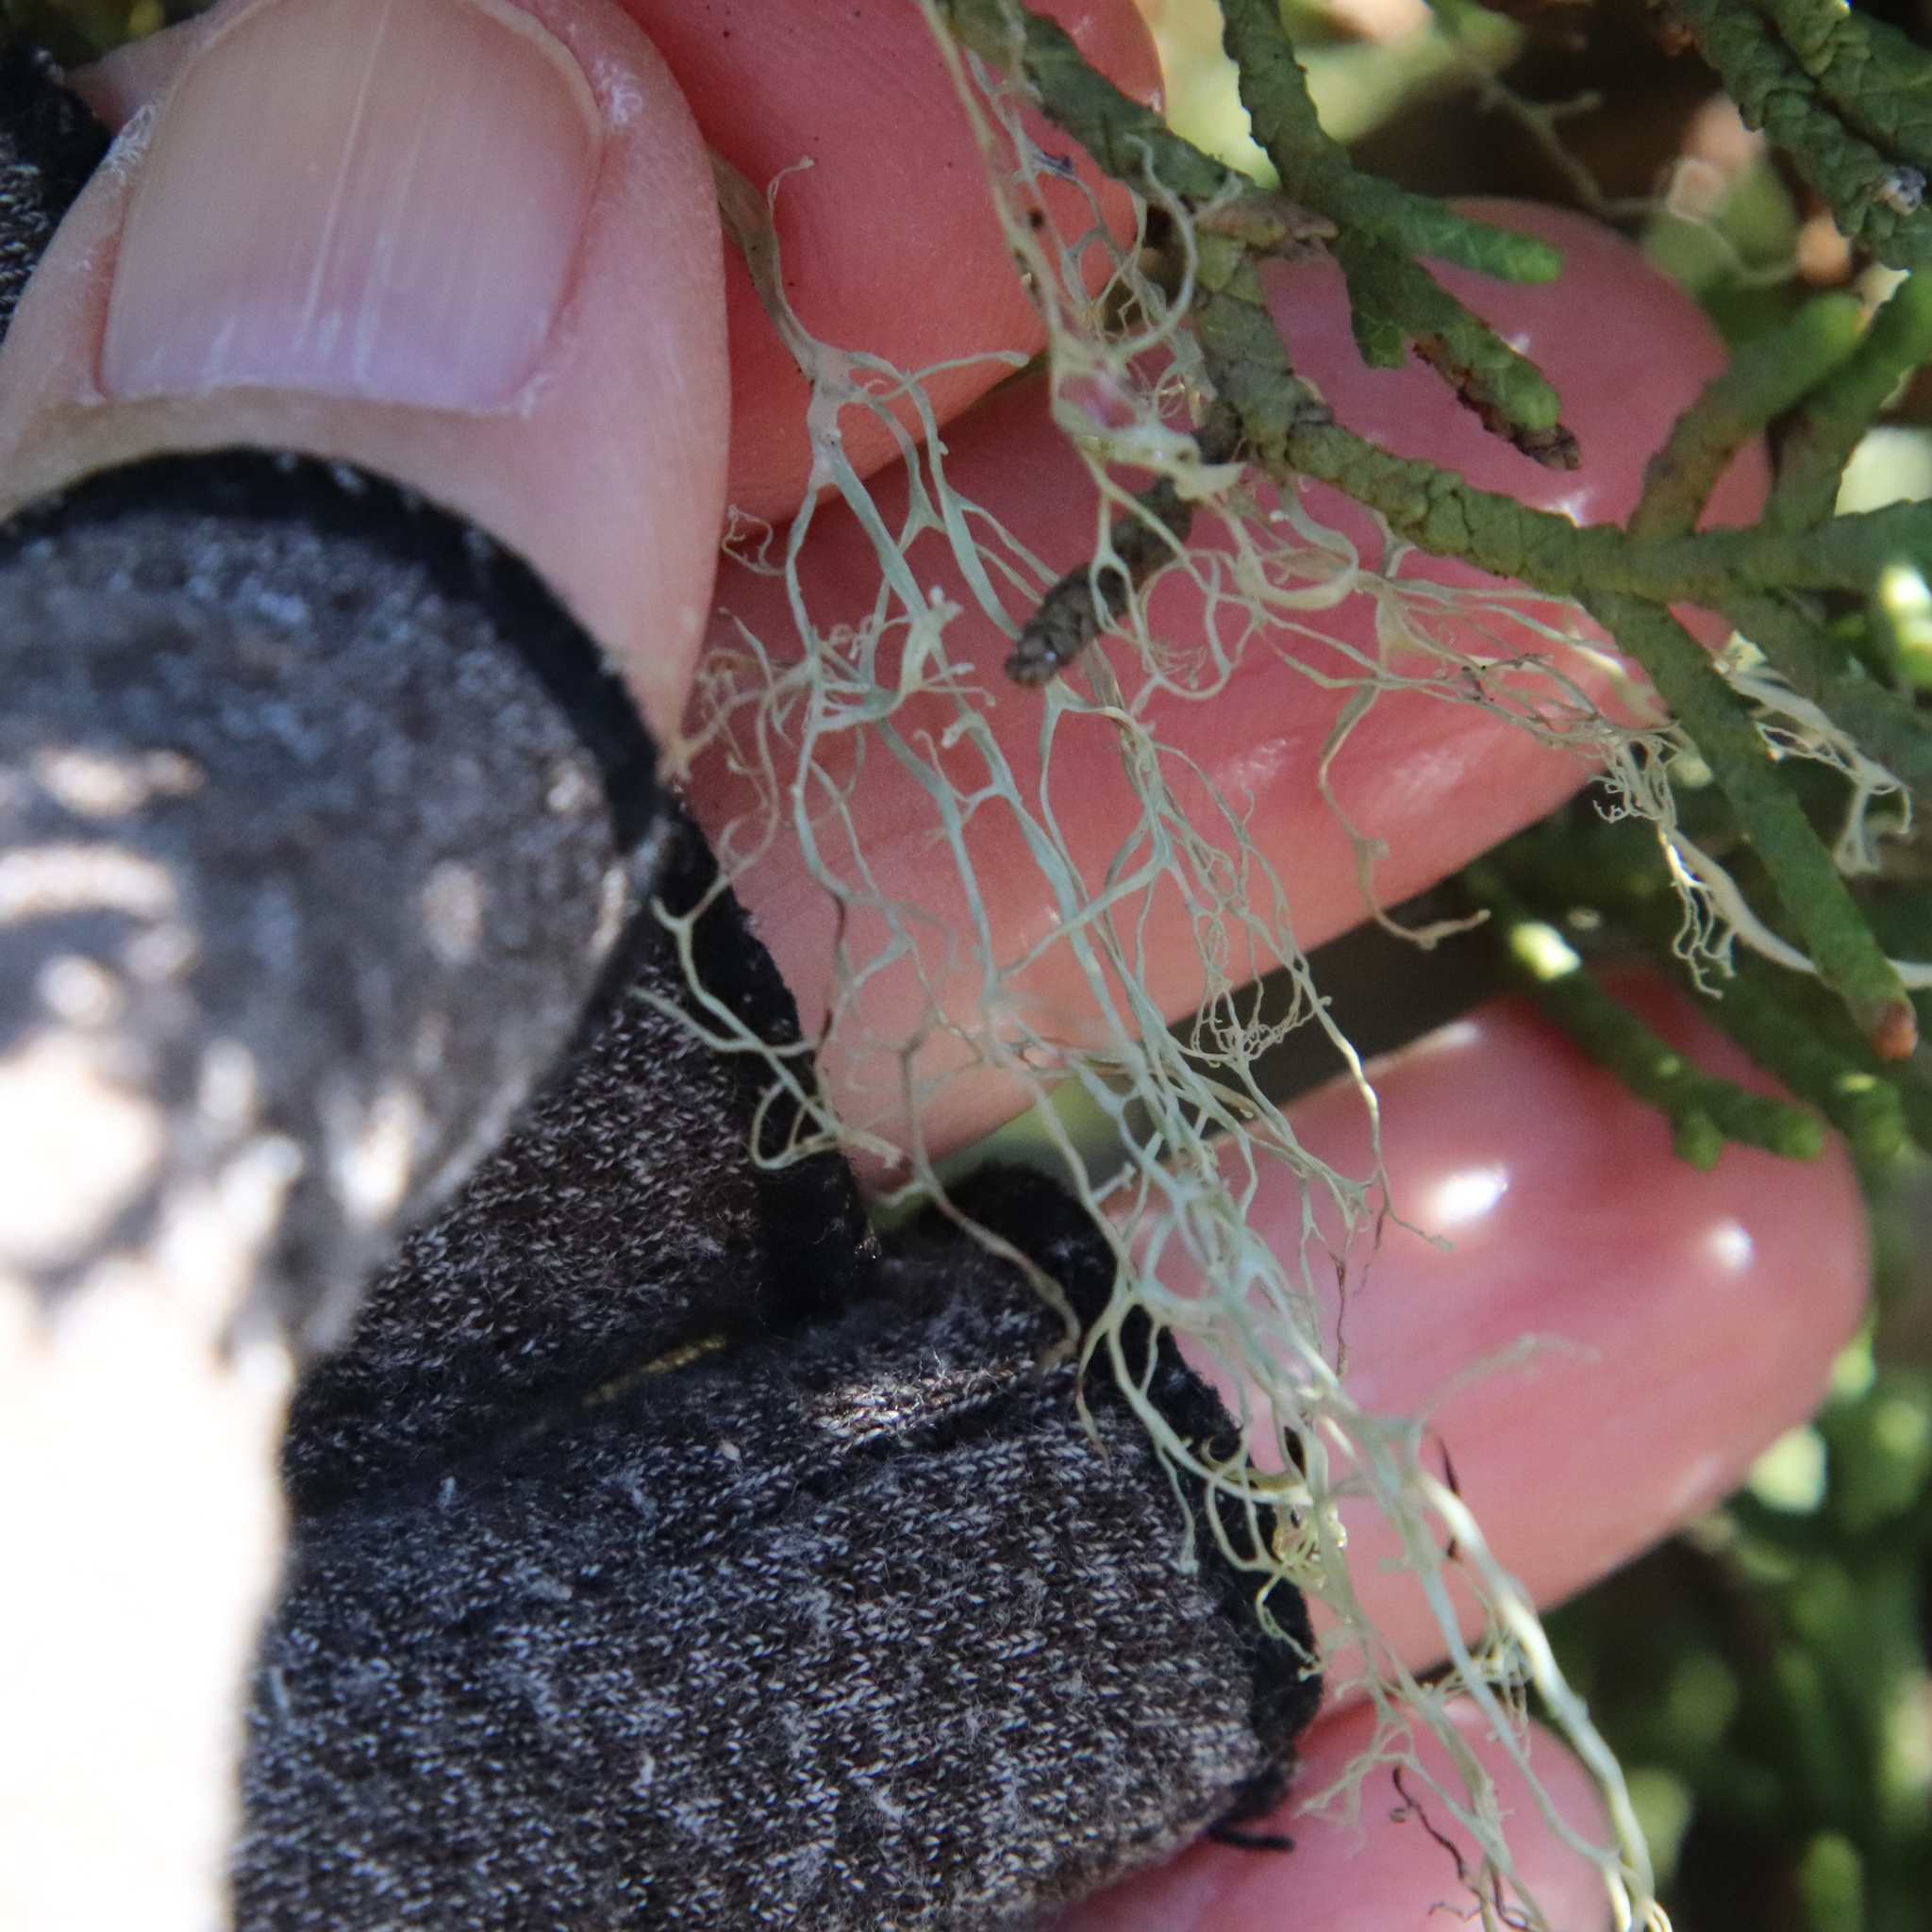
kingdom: Fungi
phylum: Ascomycota
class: Lecanoromycetes
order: Lecanorales
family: Ramalinaceae
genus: Ramalina
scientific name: Ramalina menziesii
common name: Lace lichen
